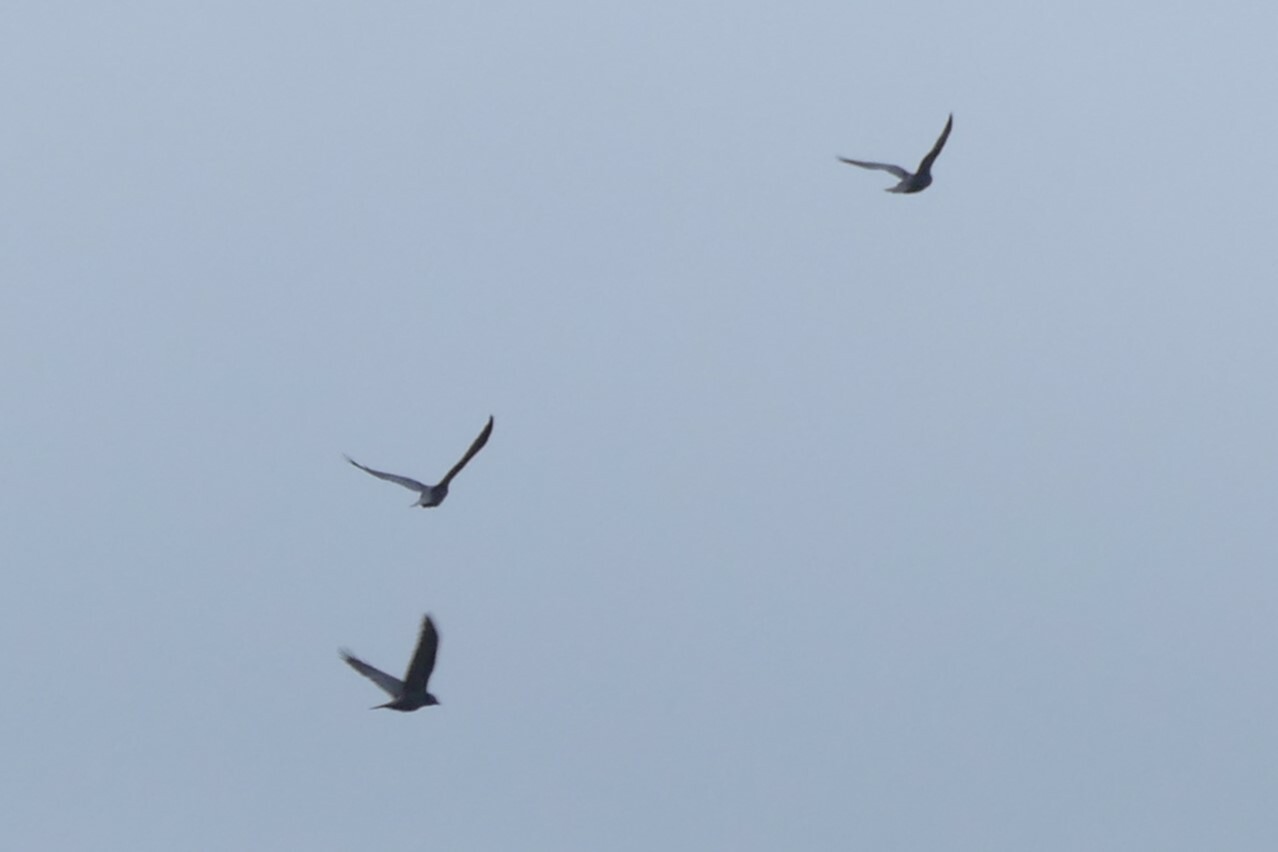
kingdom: Animalia
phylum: Chordata
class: Aves
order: Passeriformes
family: Corvidae
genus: Coloeus
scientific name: Coloeus monedula
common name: Western jackdaw
